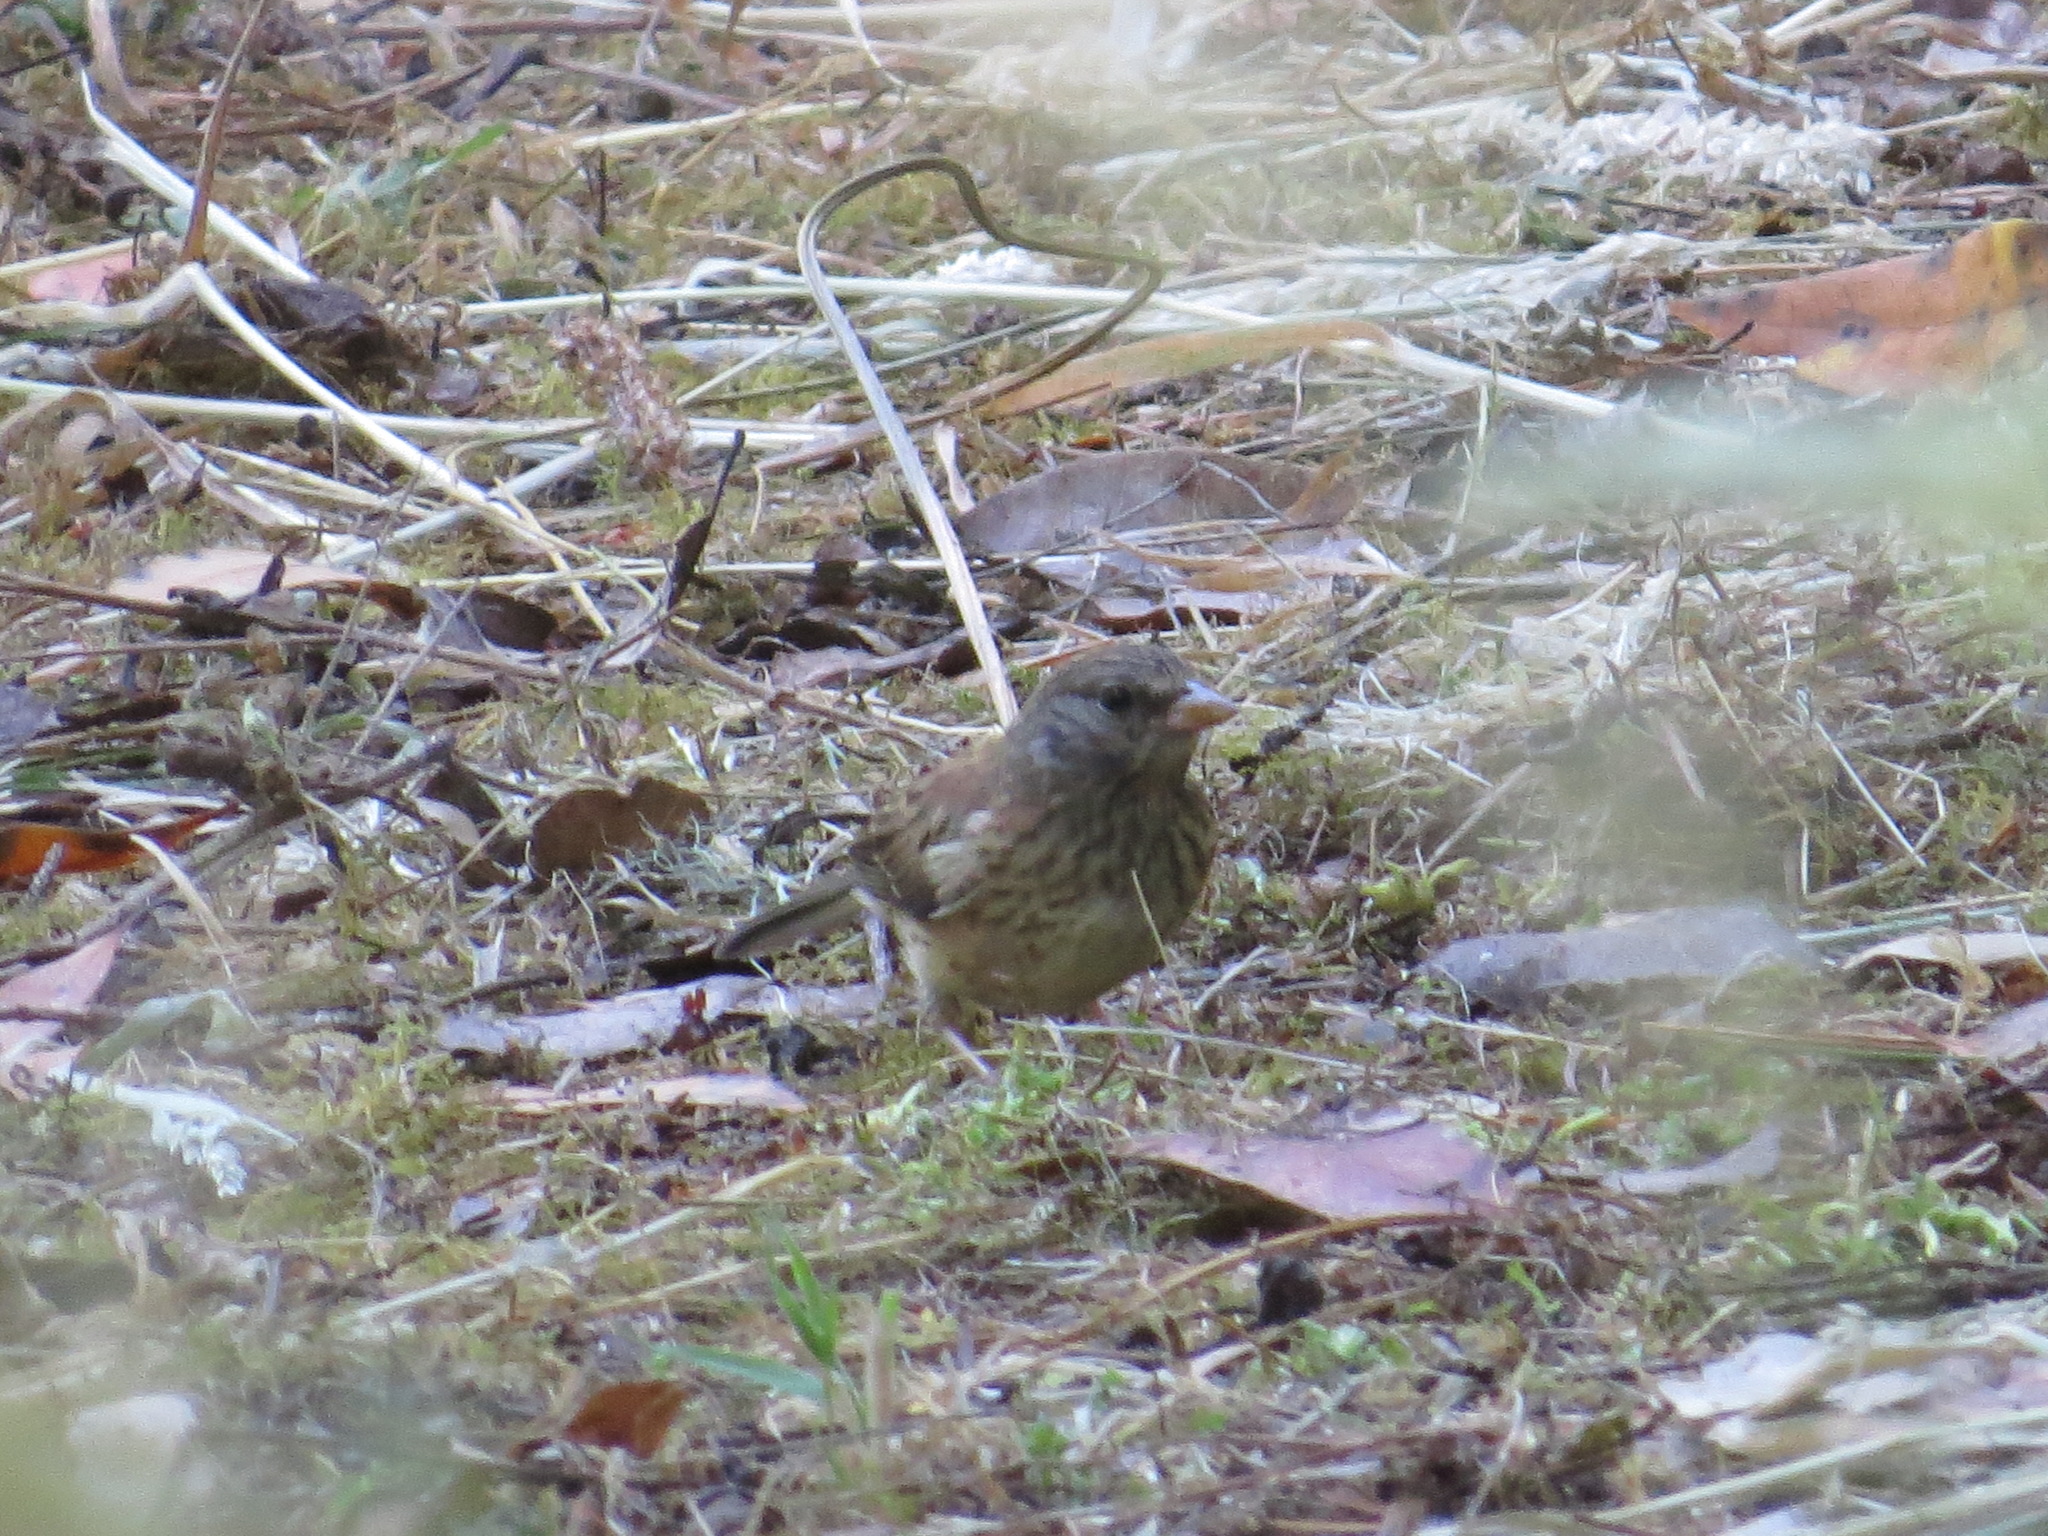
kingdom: Animalia
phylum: Chordata
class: Aves
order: Passeriformes
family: Passerellidae
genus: Junco
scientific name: Junco hyemalis
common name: Dark-eyed junco
